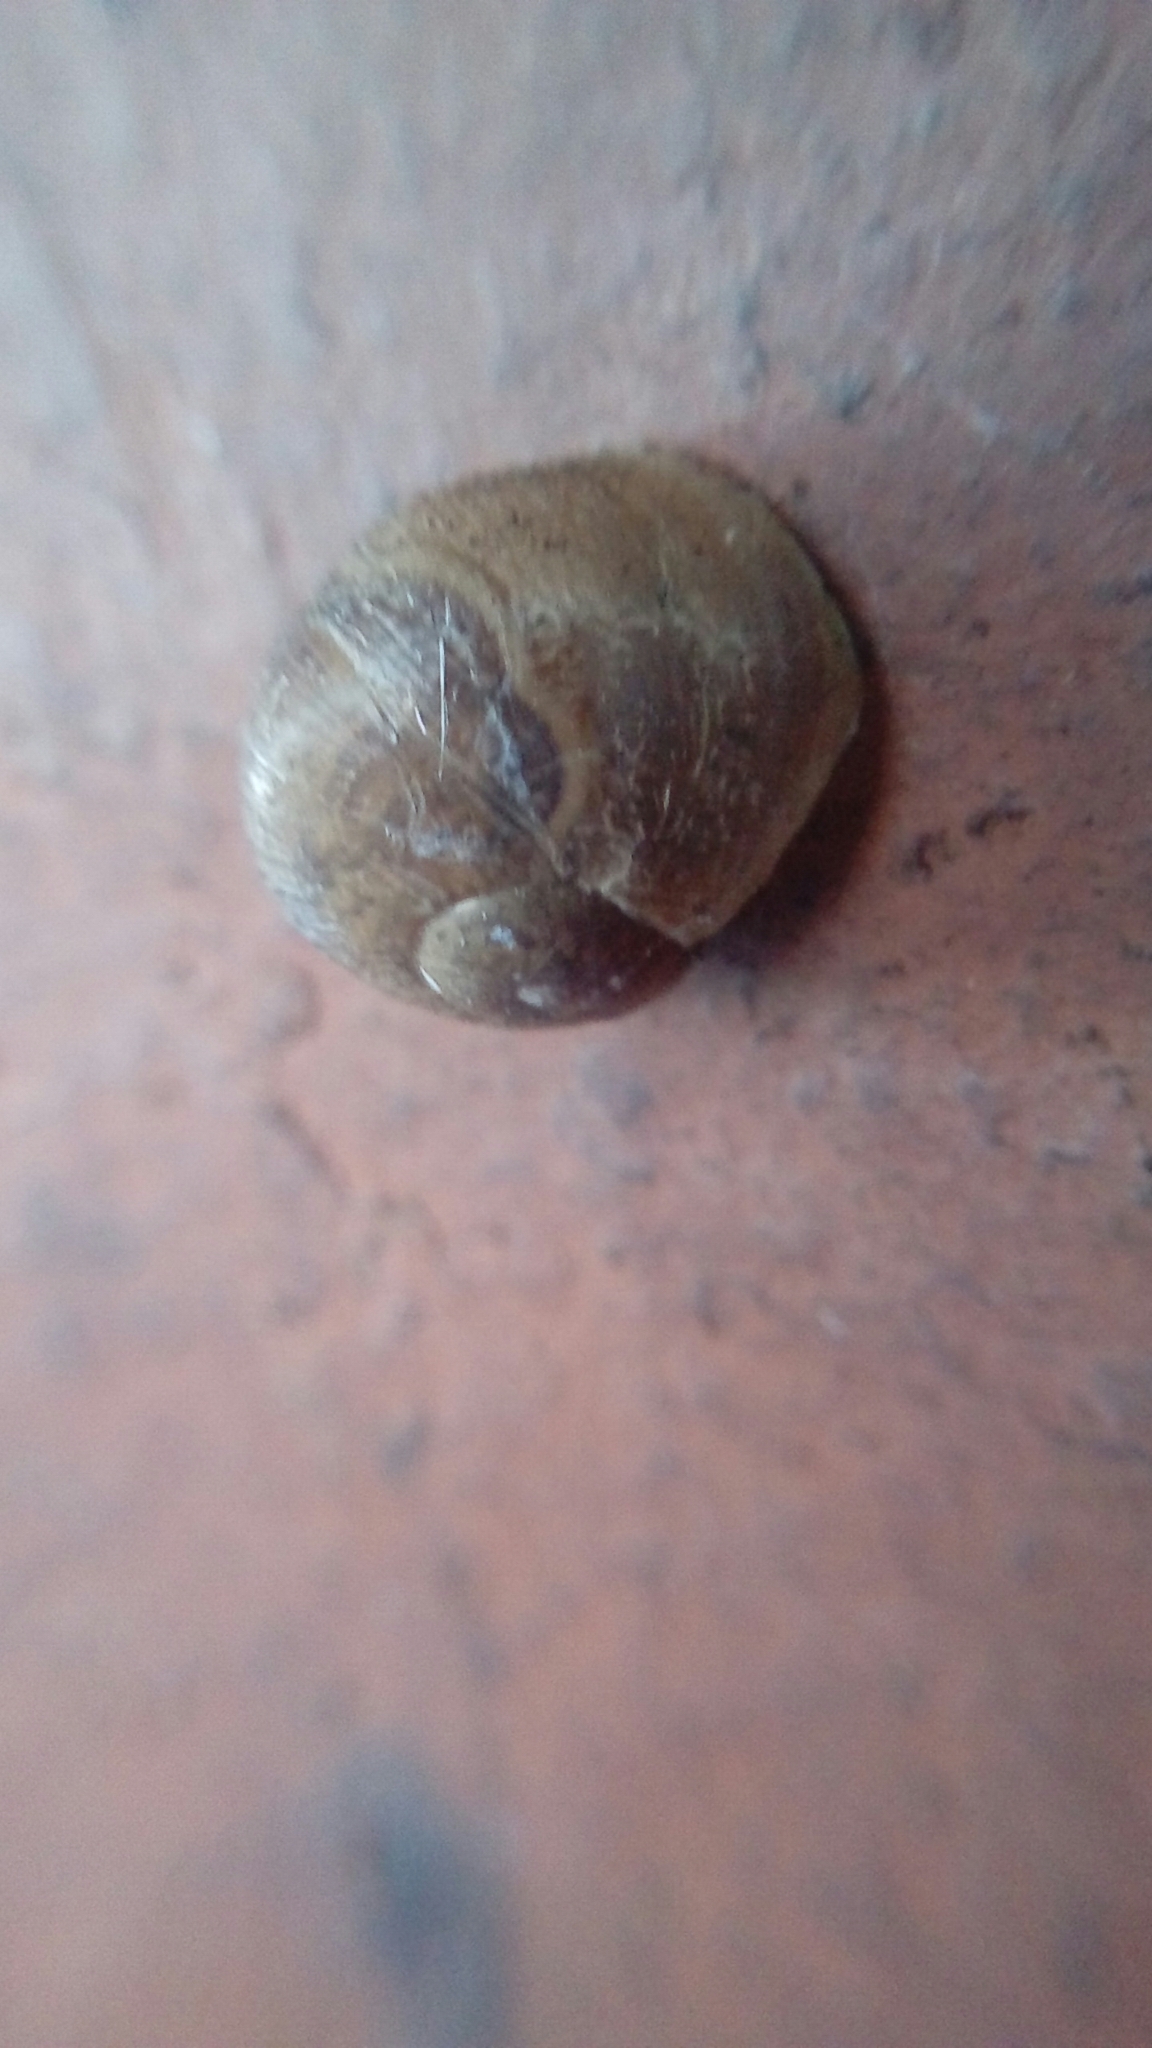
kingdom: Animalia
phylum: Mollusca
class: Gastropoda
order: Stylommatophora
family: Helicidae
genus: Cornu
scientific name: Cornu aspersum
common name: Brown garden snail
